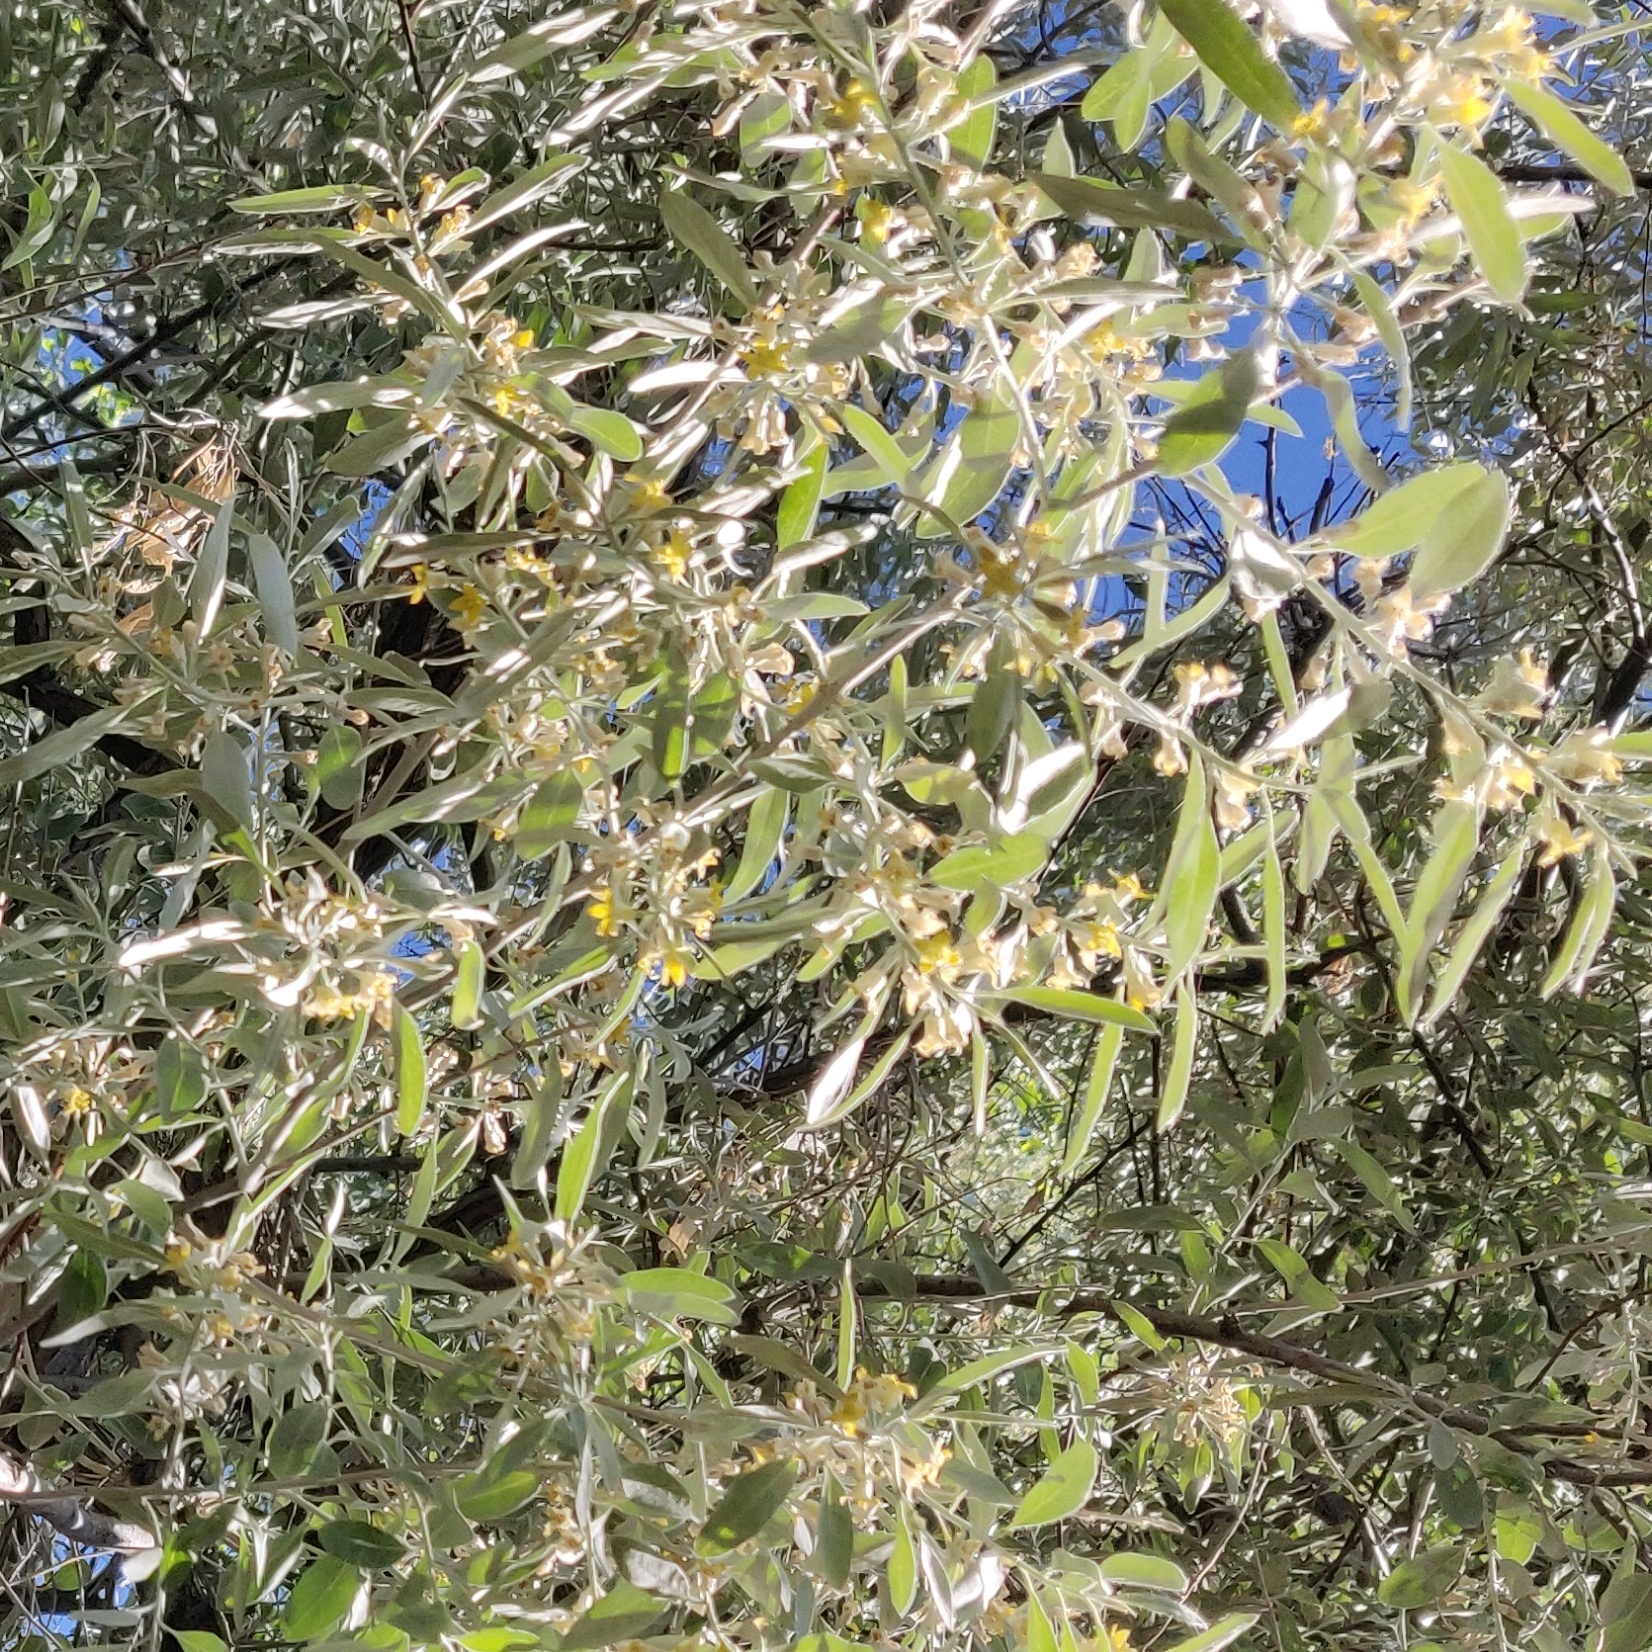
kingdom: Plantae
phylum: Tracheophyta
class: Magnoliopsida
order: Rosales
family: Elaeagnaceae
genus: Elaeagnus
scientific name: Elaeagnus angustifolia
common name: Russian olive
